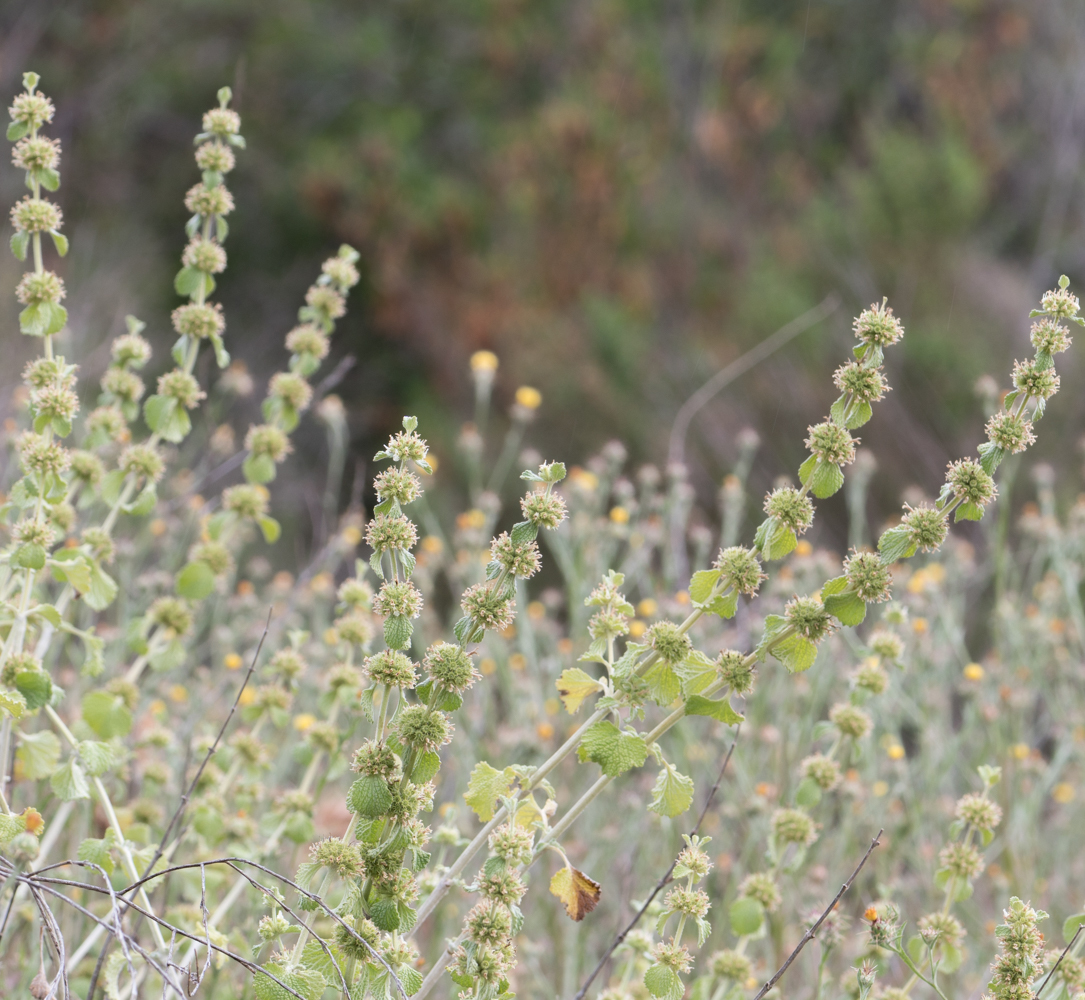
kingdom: Plantae
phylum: Tracheophyta
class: Magnoliopsida
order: Lamiales
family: Lamiaceae
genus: Marrubium
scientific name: Marrubium vulgare
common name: Horehound
